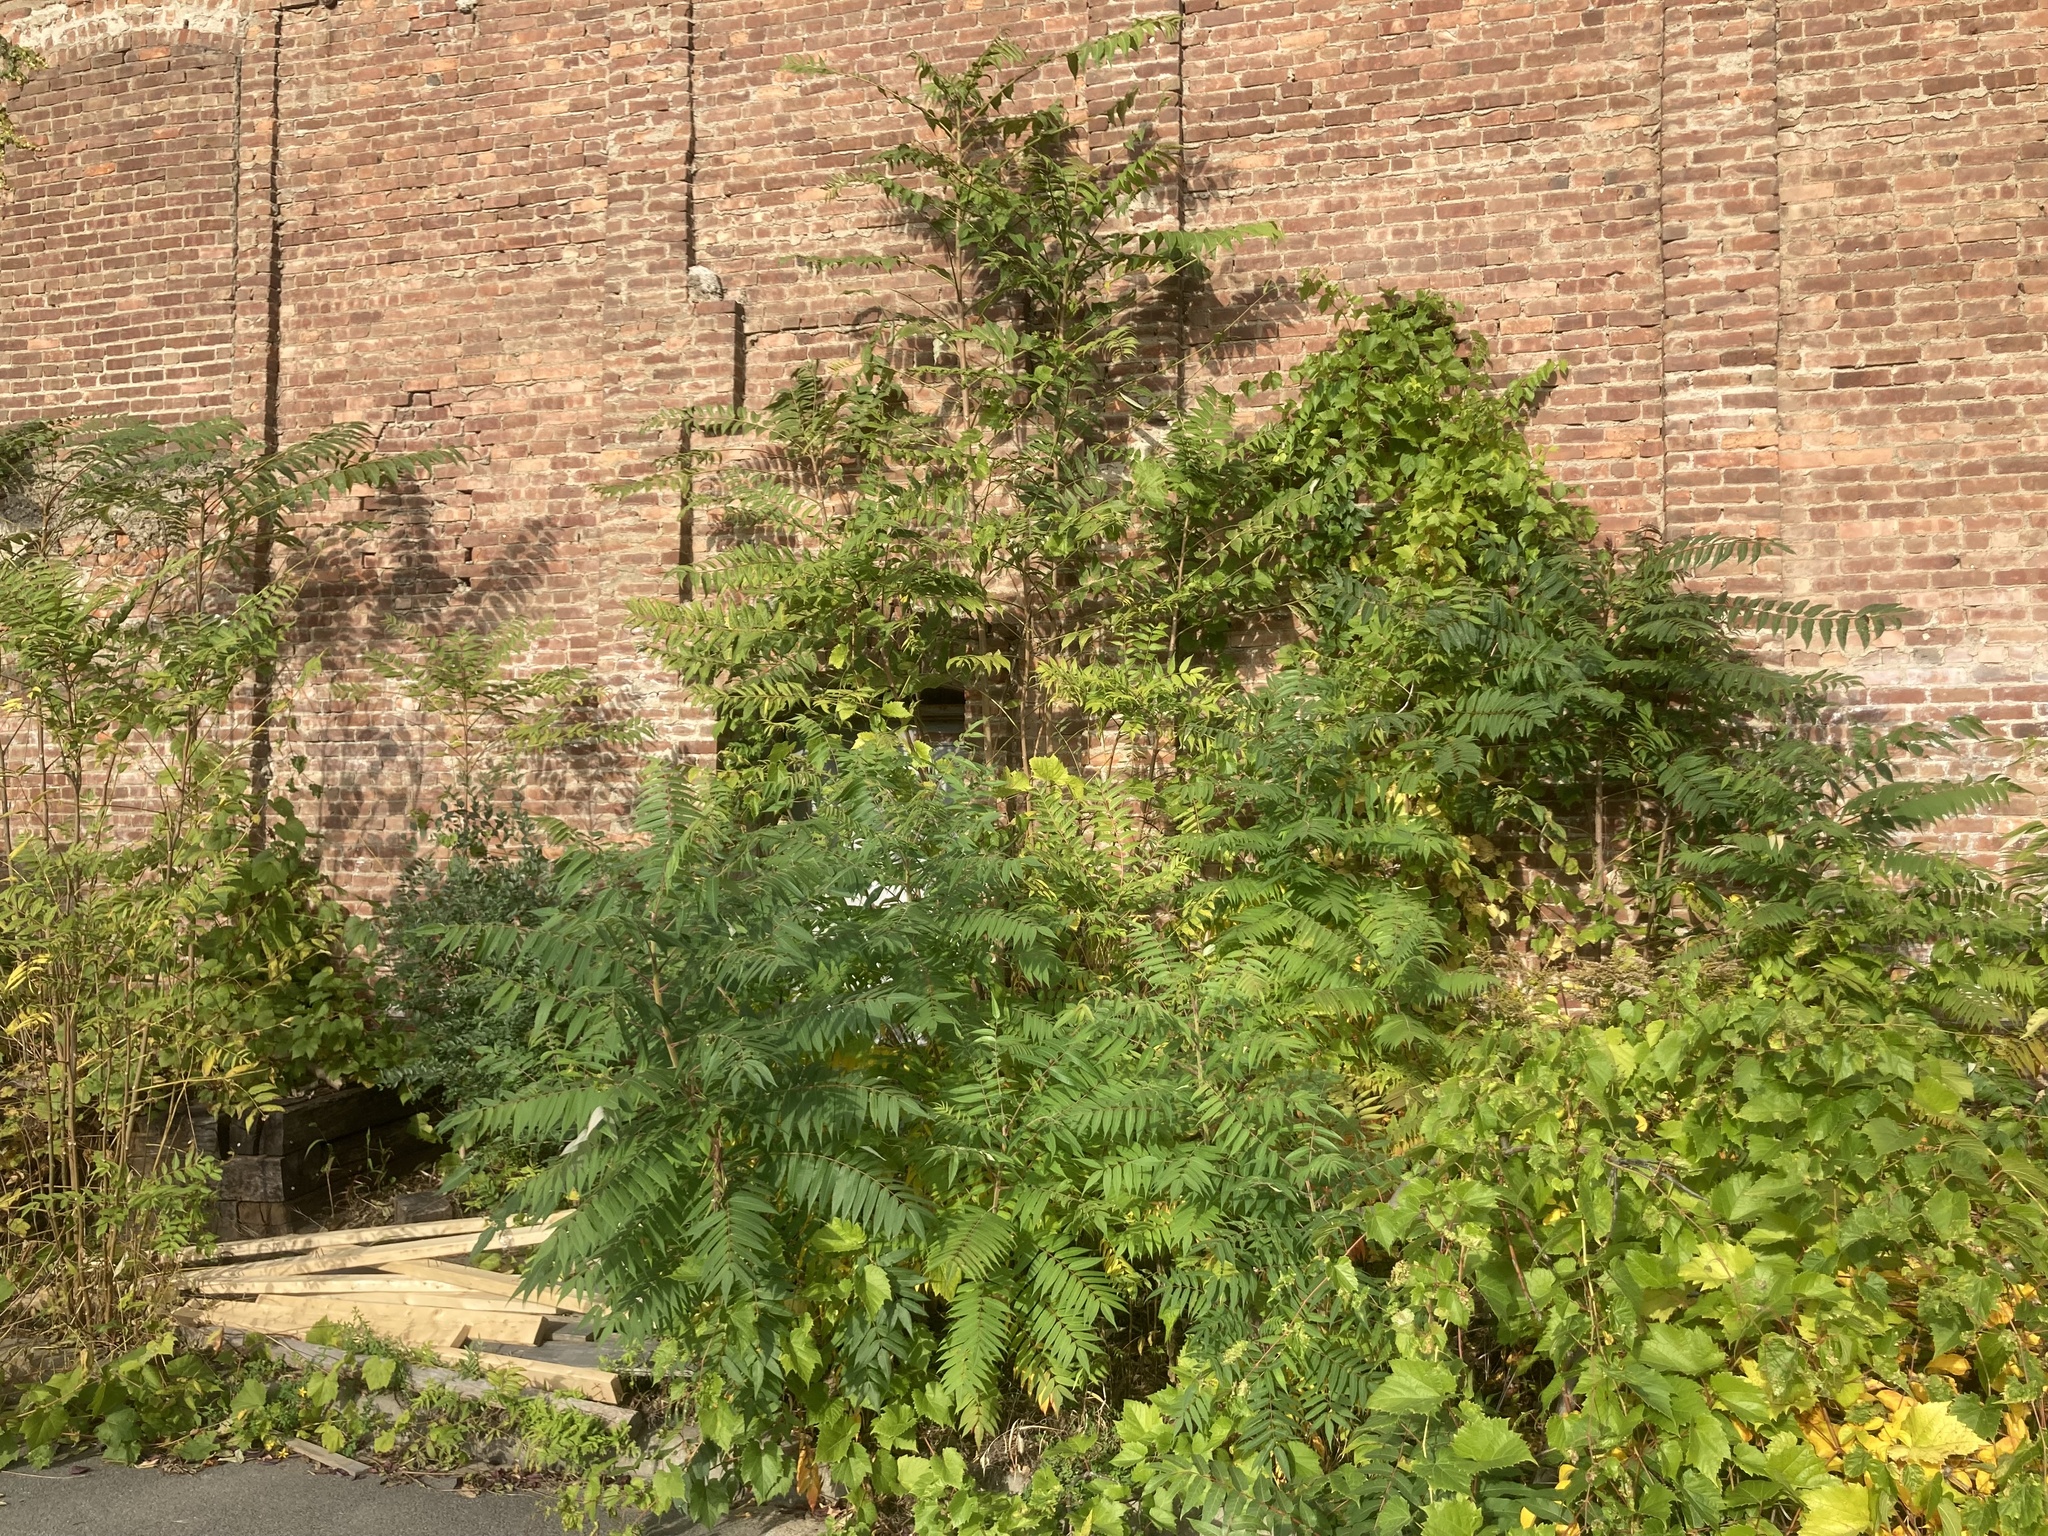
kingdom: Plantae
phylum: Tracheophyta
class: Magnoliopsida
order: Sapindales
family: Anacardiaceae
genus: Rhus
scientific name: Rhus typhina
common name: Staghorn sumac
